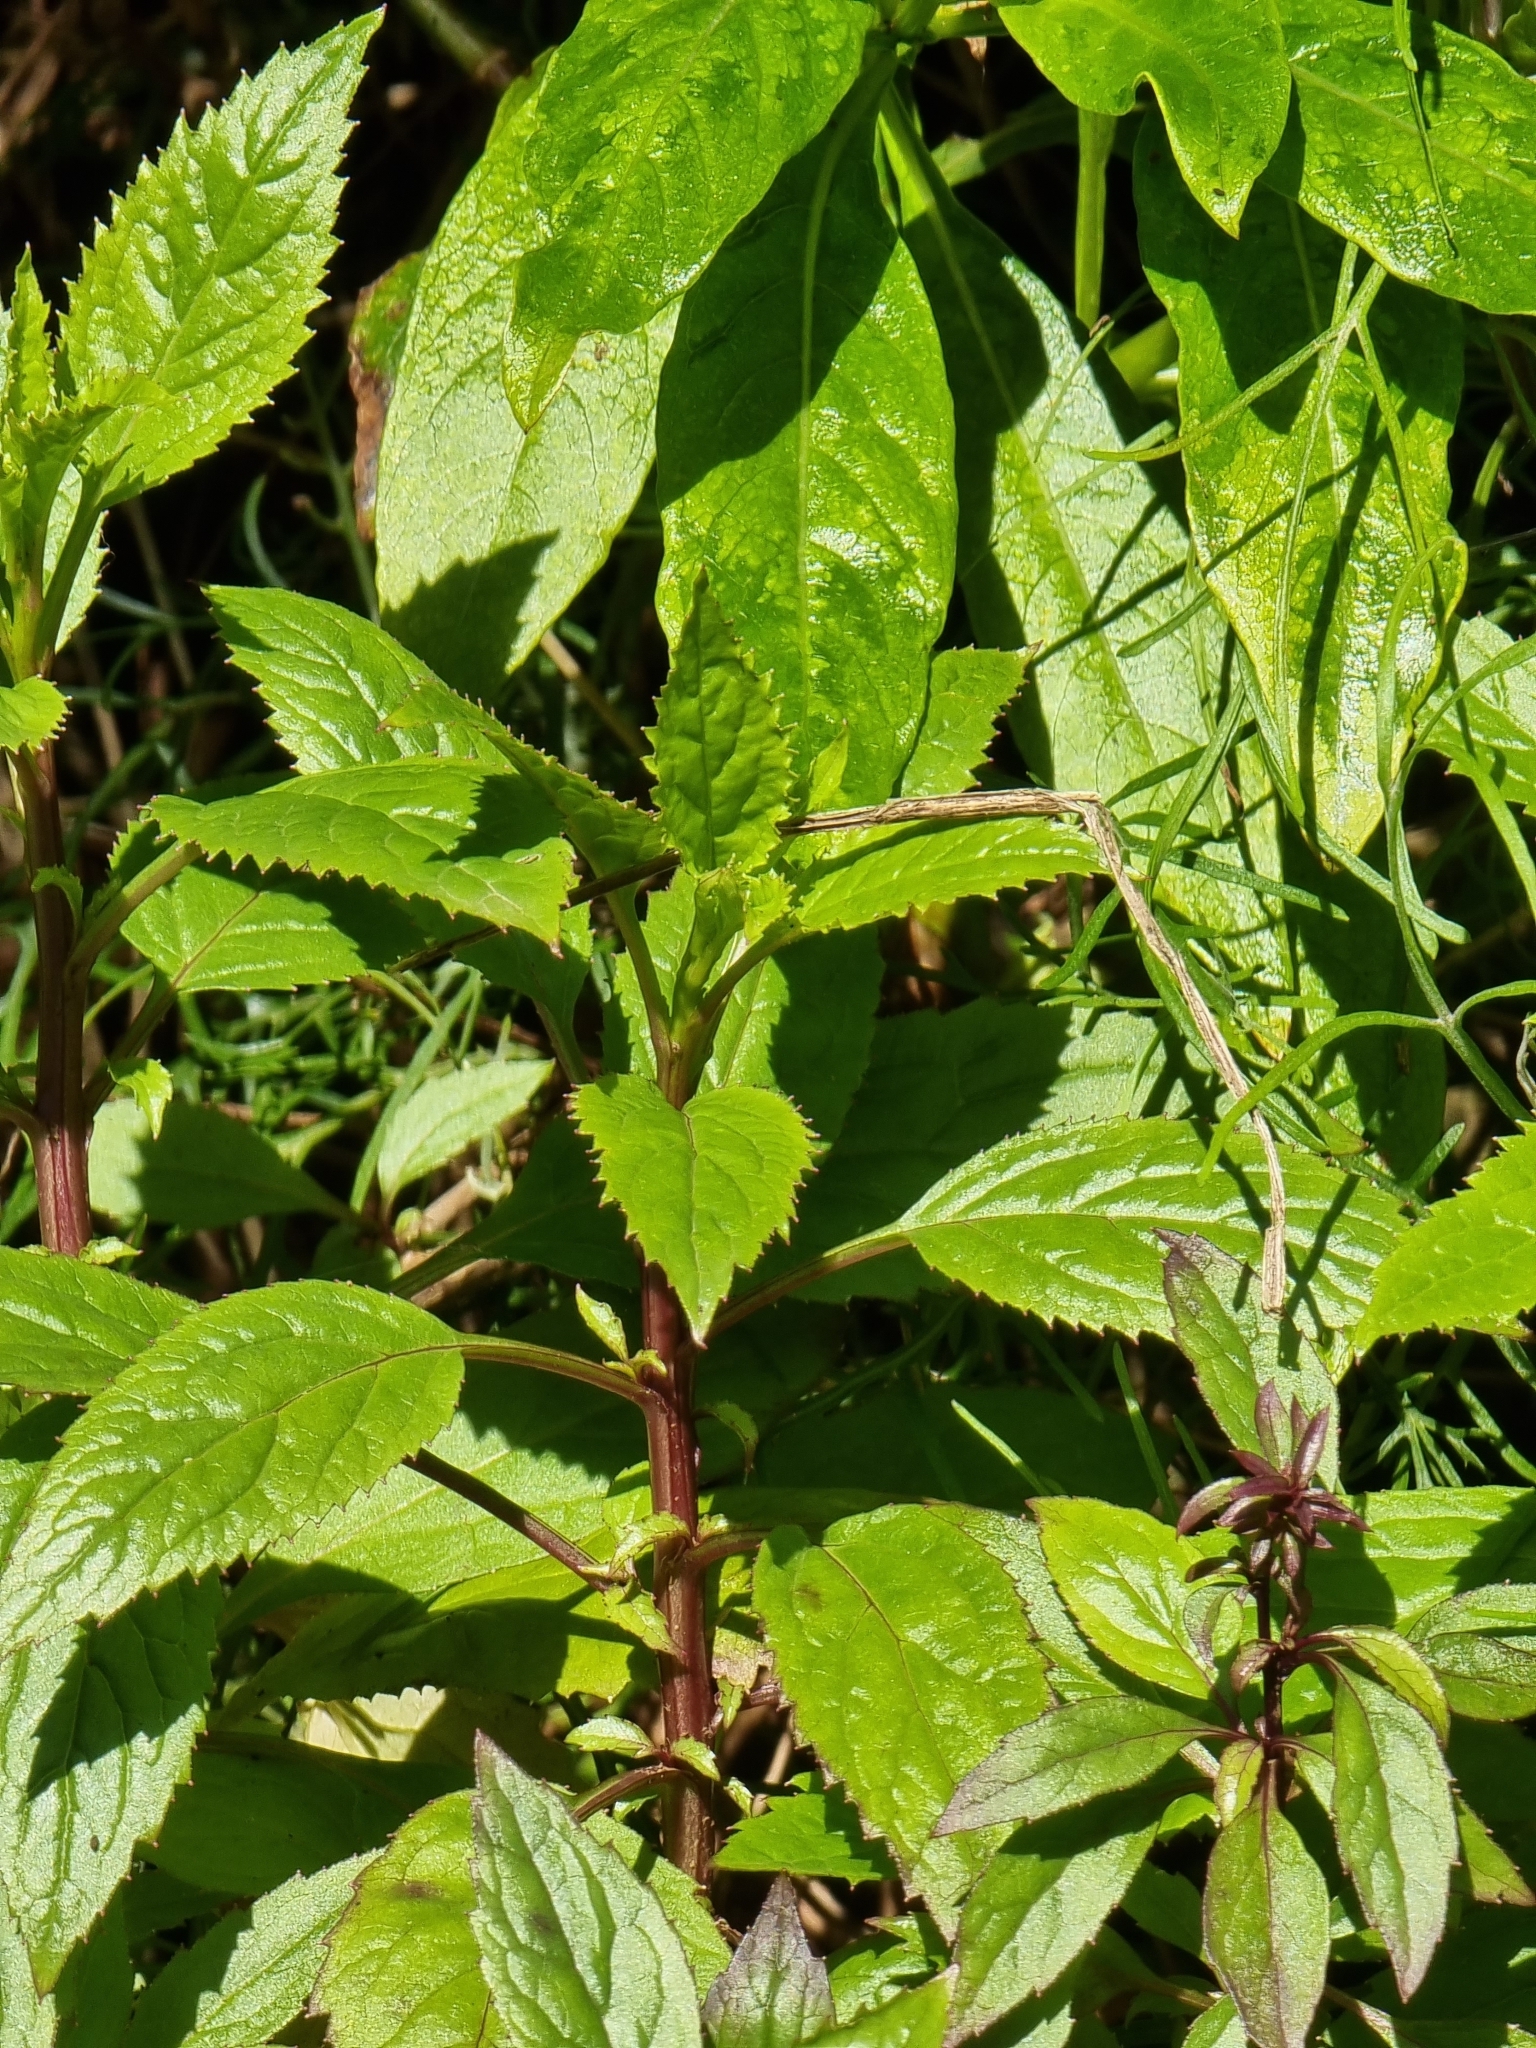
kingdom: Plantae
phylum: Tracheophyta
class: Magnoliopsida
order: Asterales
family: Campanulaceae
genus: Trachelium
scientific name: Trachelium caeruleum
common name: Throatwort
